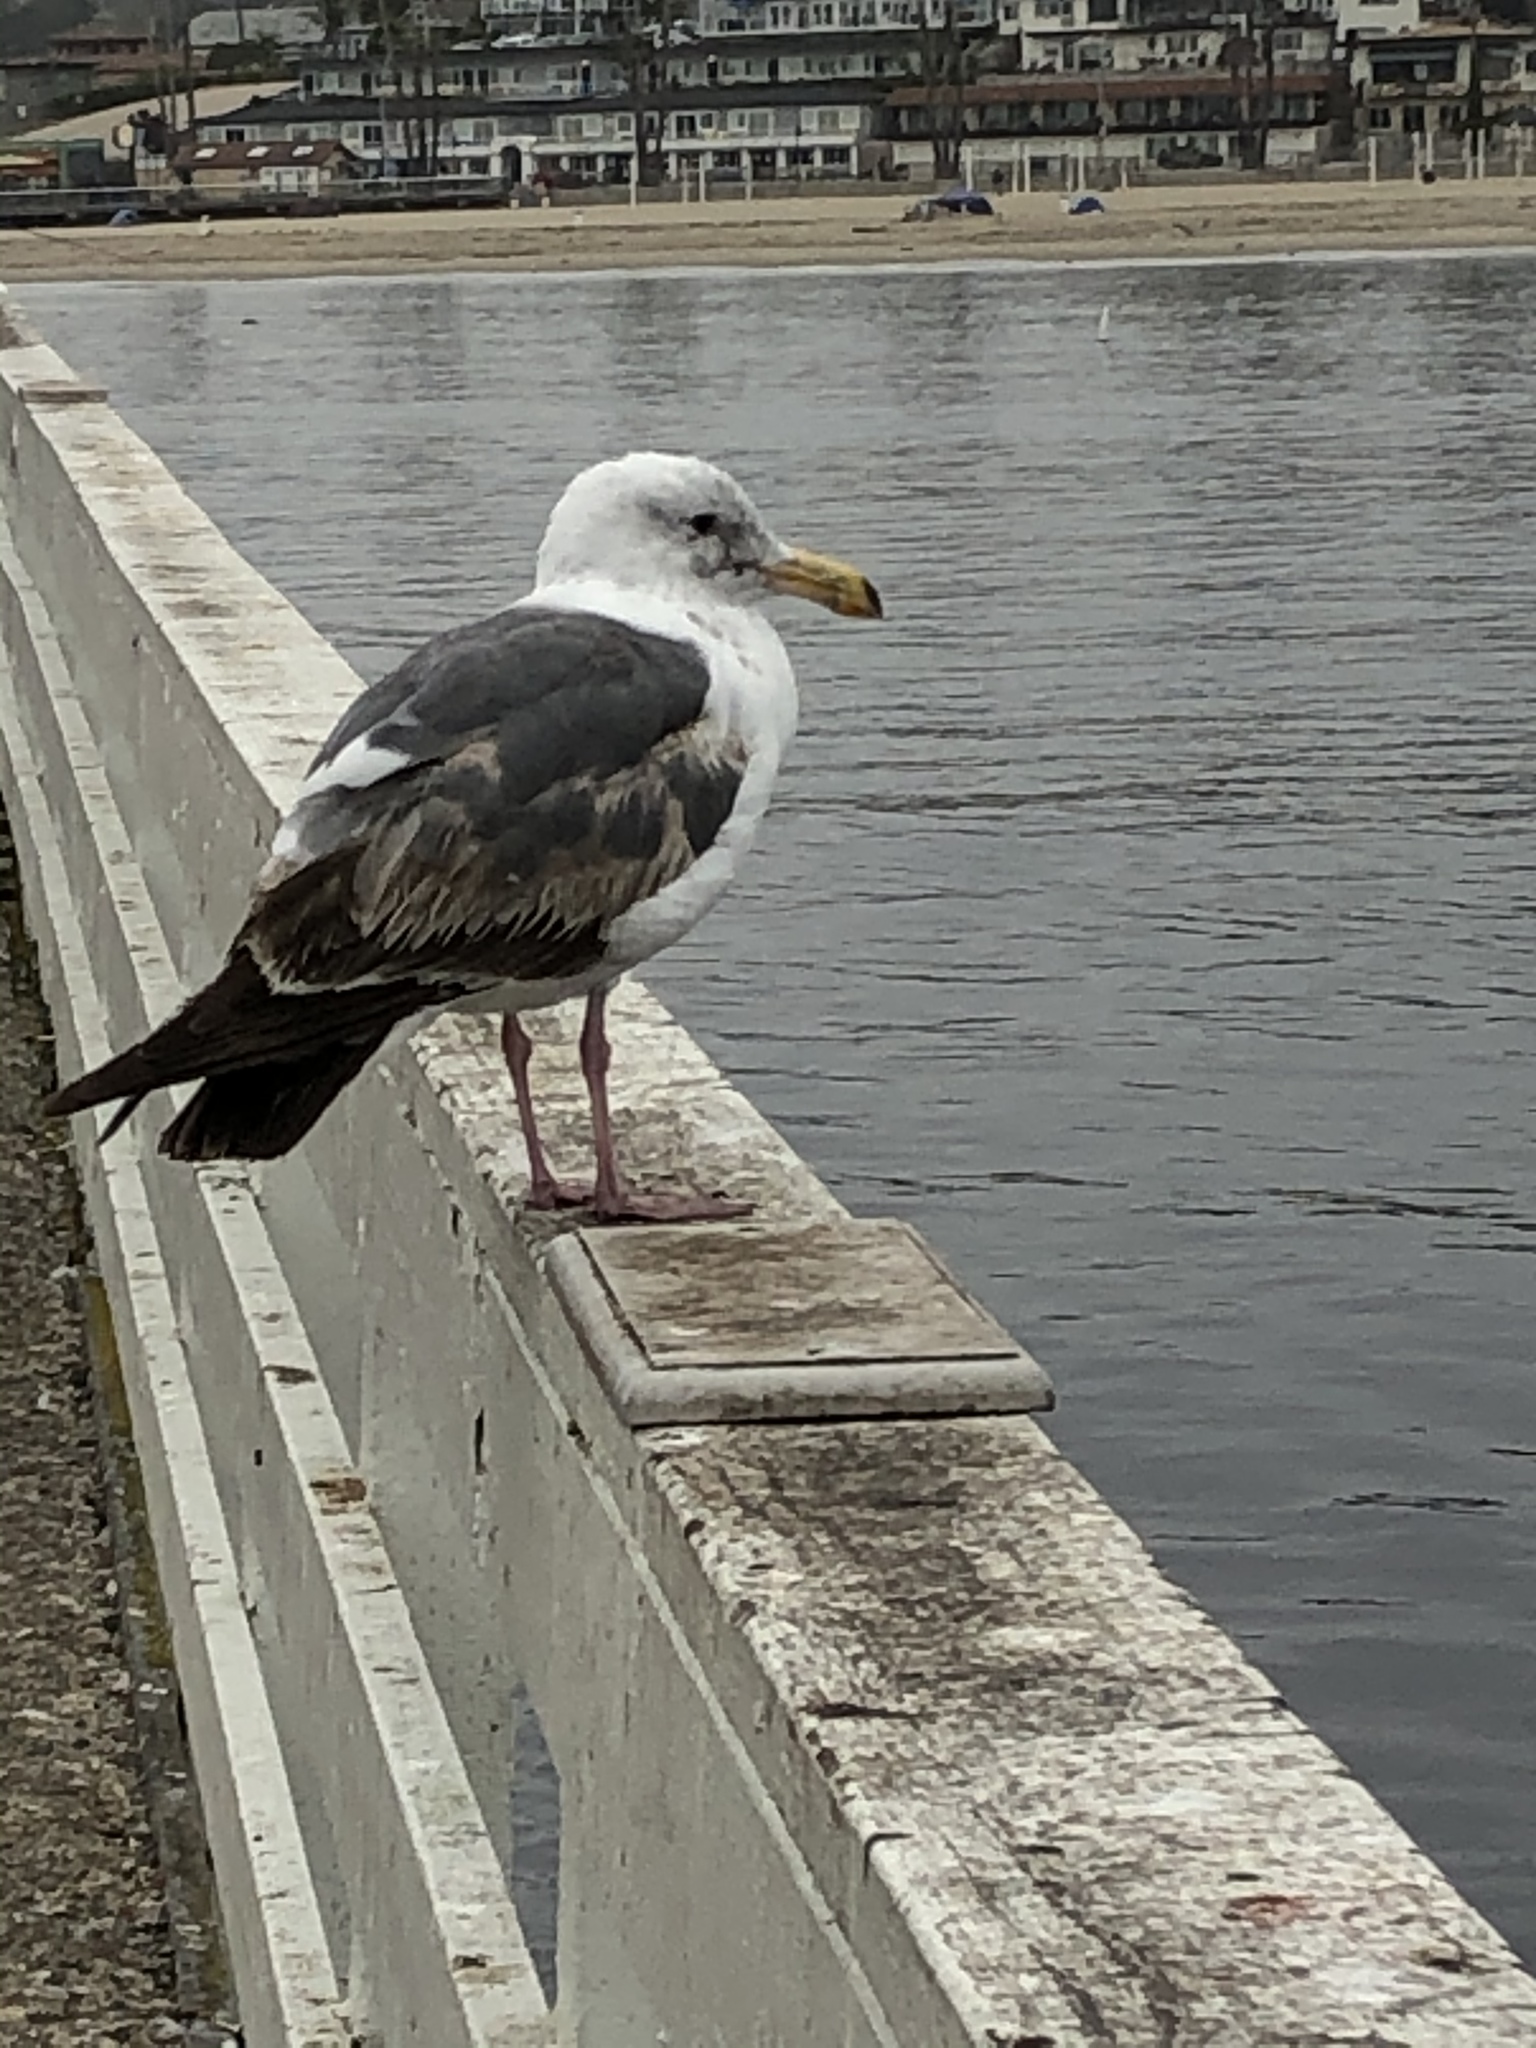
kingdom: Animalia
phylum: Chordata
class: Aves
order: Charadriiformes
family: Laridae
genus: Larus
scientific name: Larus occidentalis
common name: Western gull
